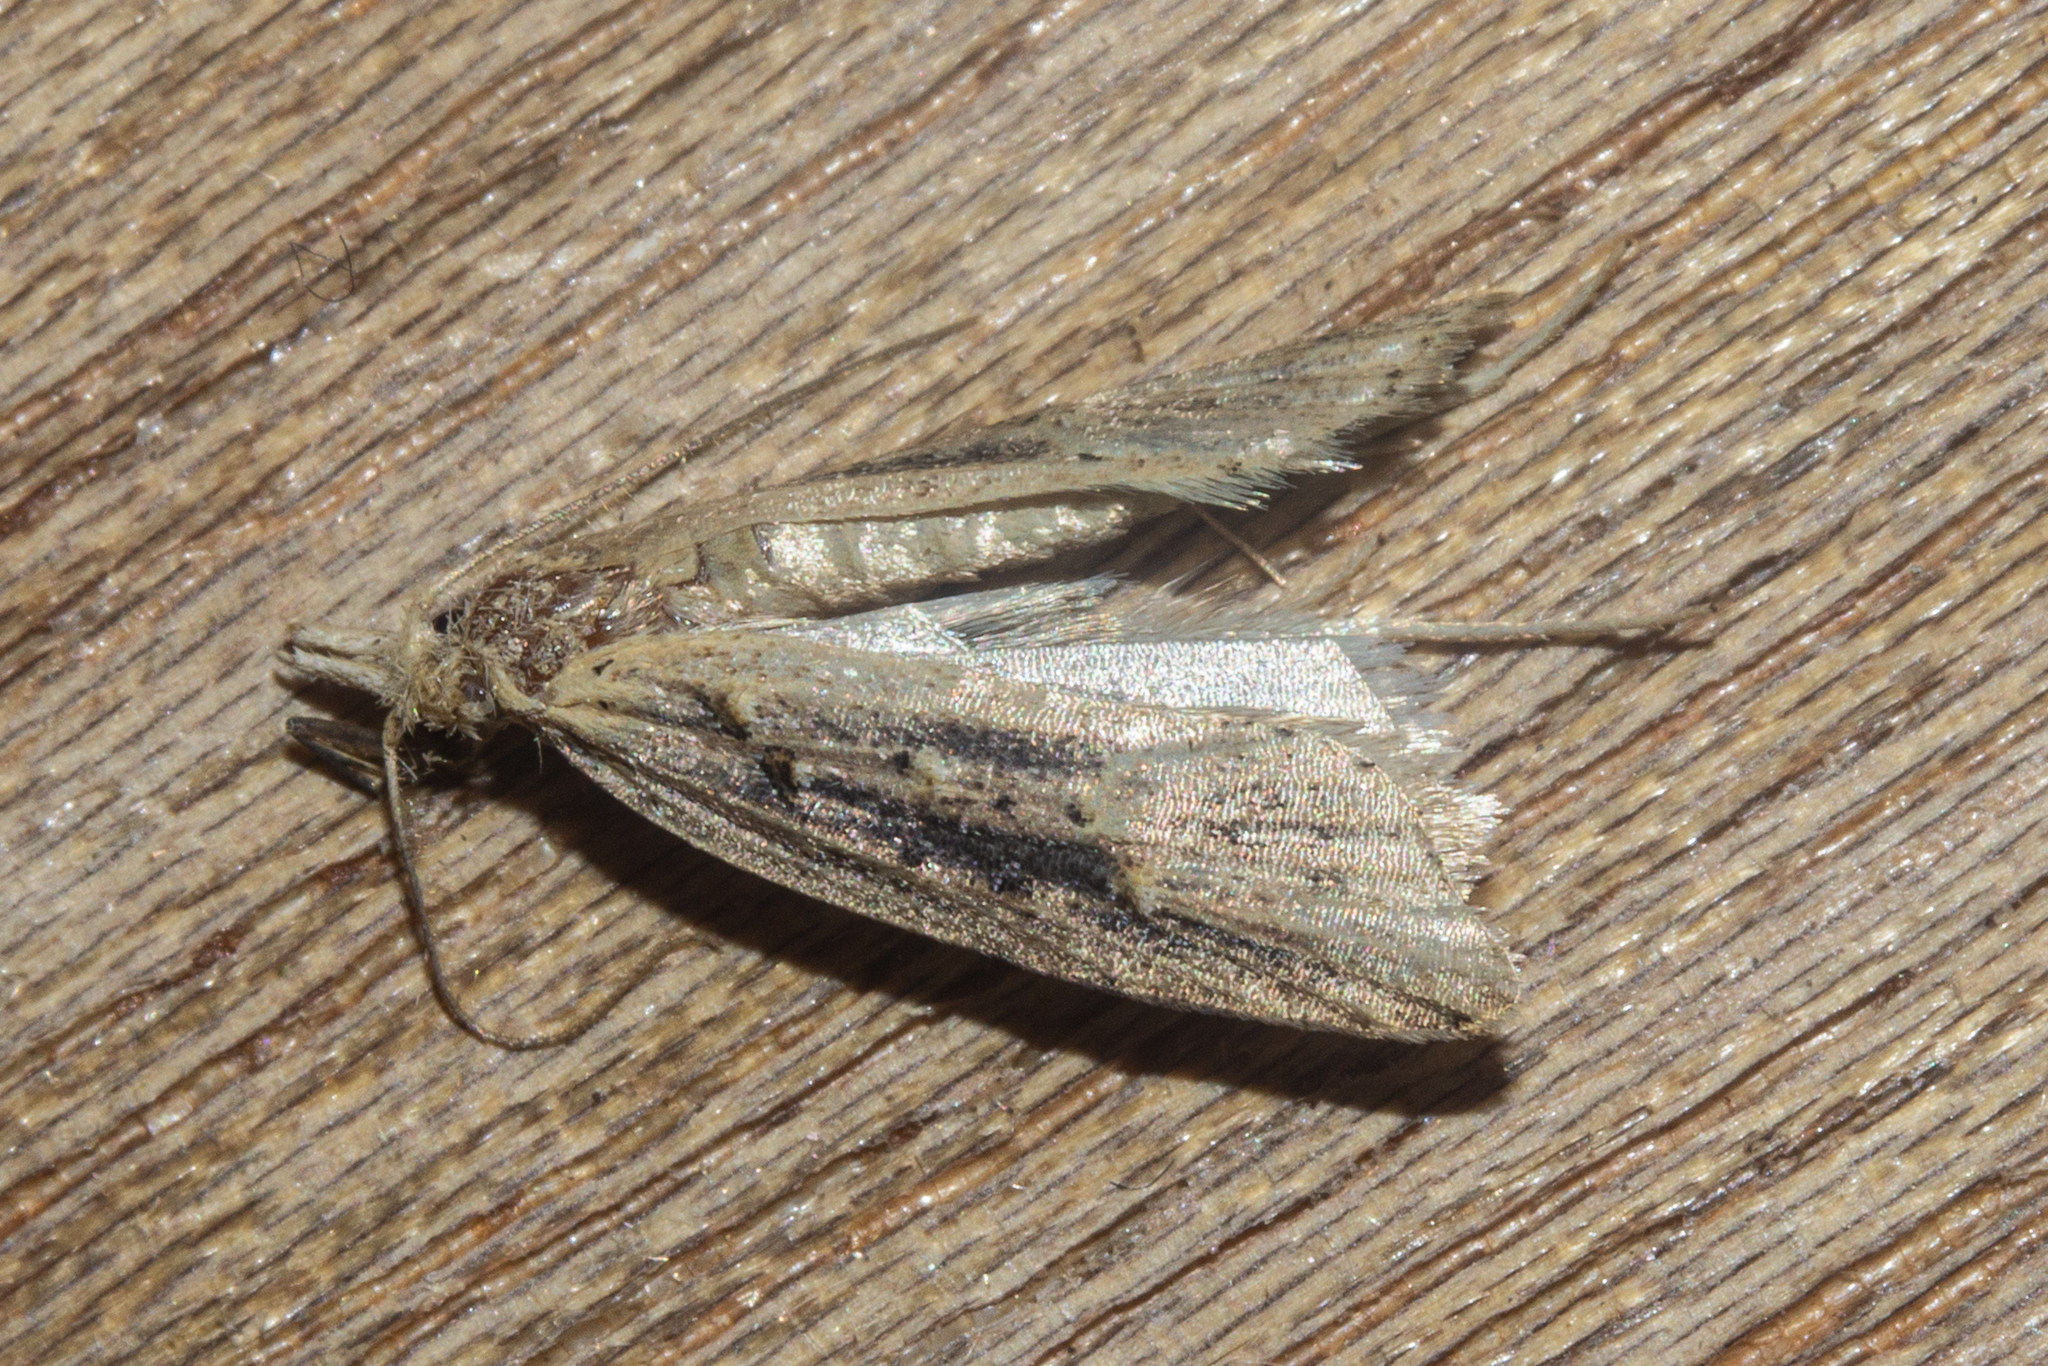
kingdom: Animalia
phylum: Arthropoda
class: Insecta
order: Lepidoptera
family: Carposinidae
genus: Carposina
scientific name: Carposina Heterocrossa exochana
